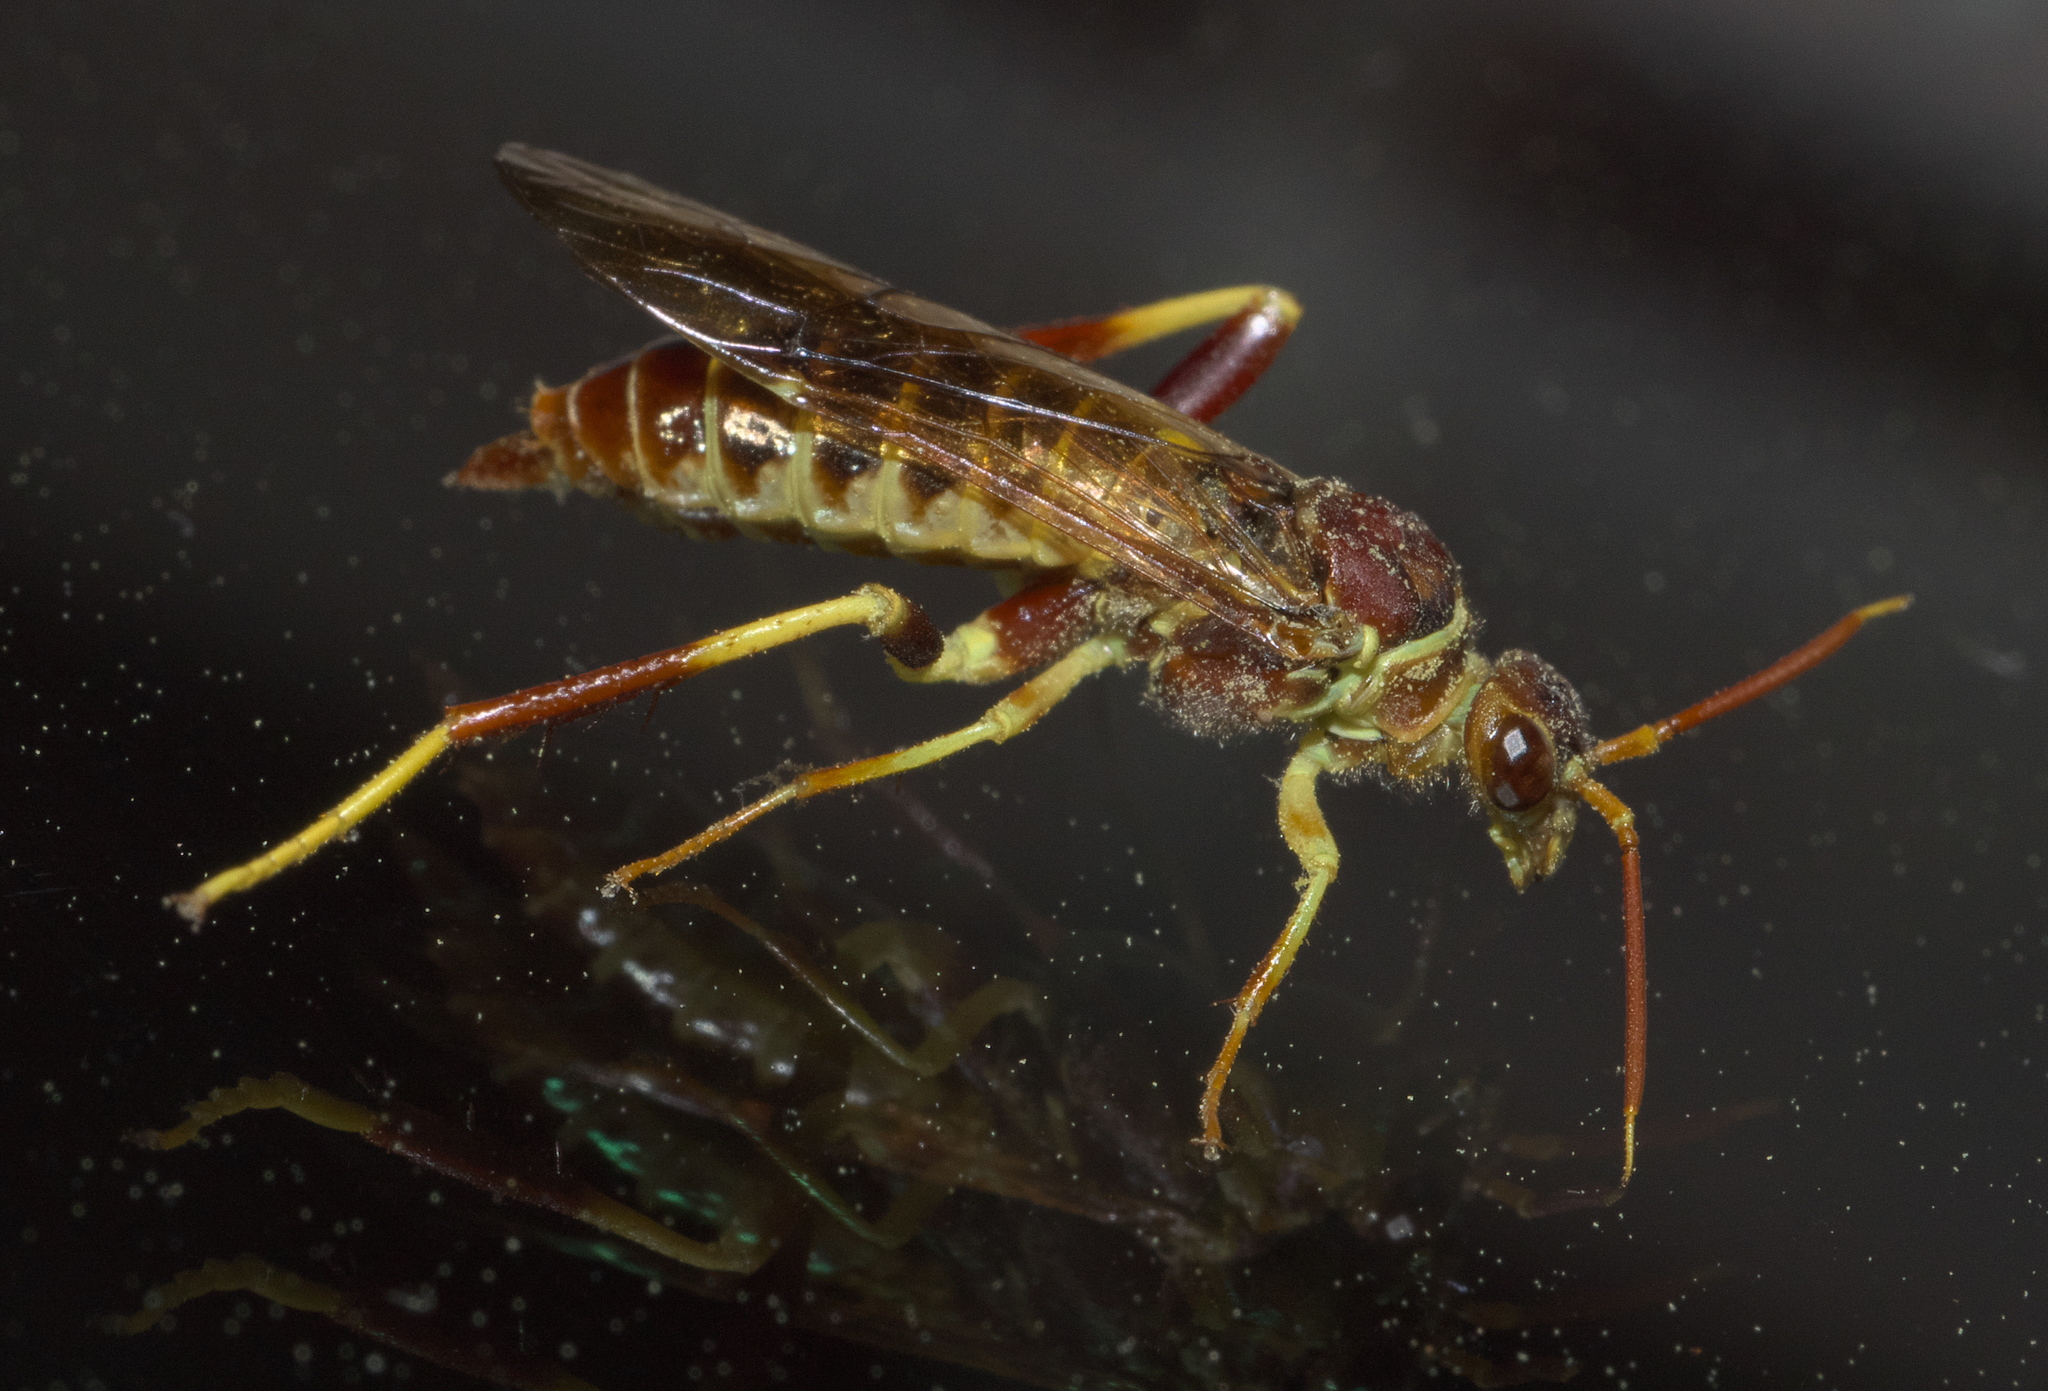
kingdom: Animalia
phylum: Arthropoda
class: Insecta
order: Hymenoptera
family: Xyelidae
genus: Megaxyela
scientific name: Megaxyela major
